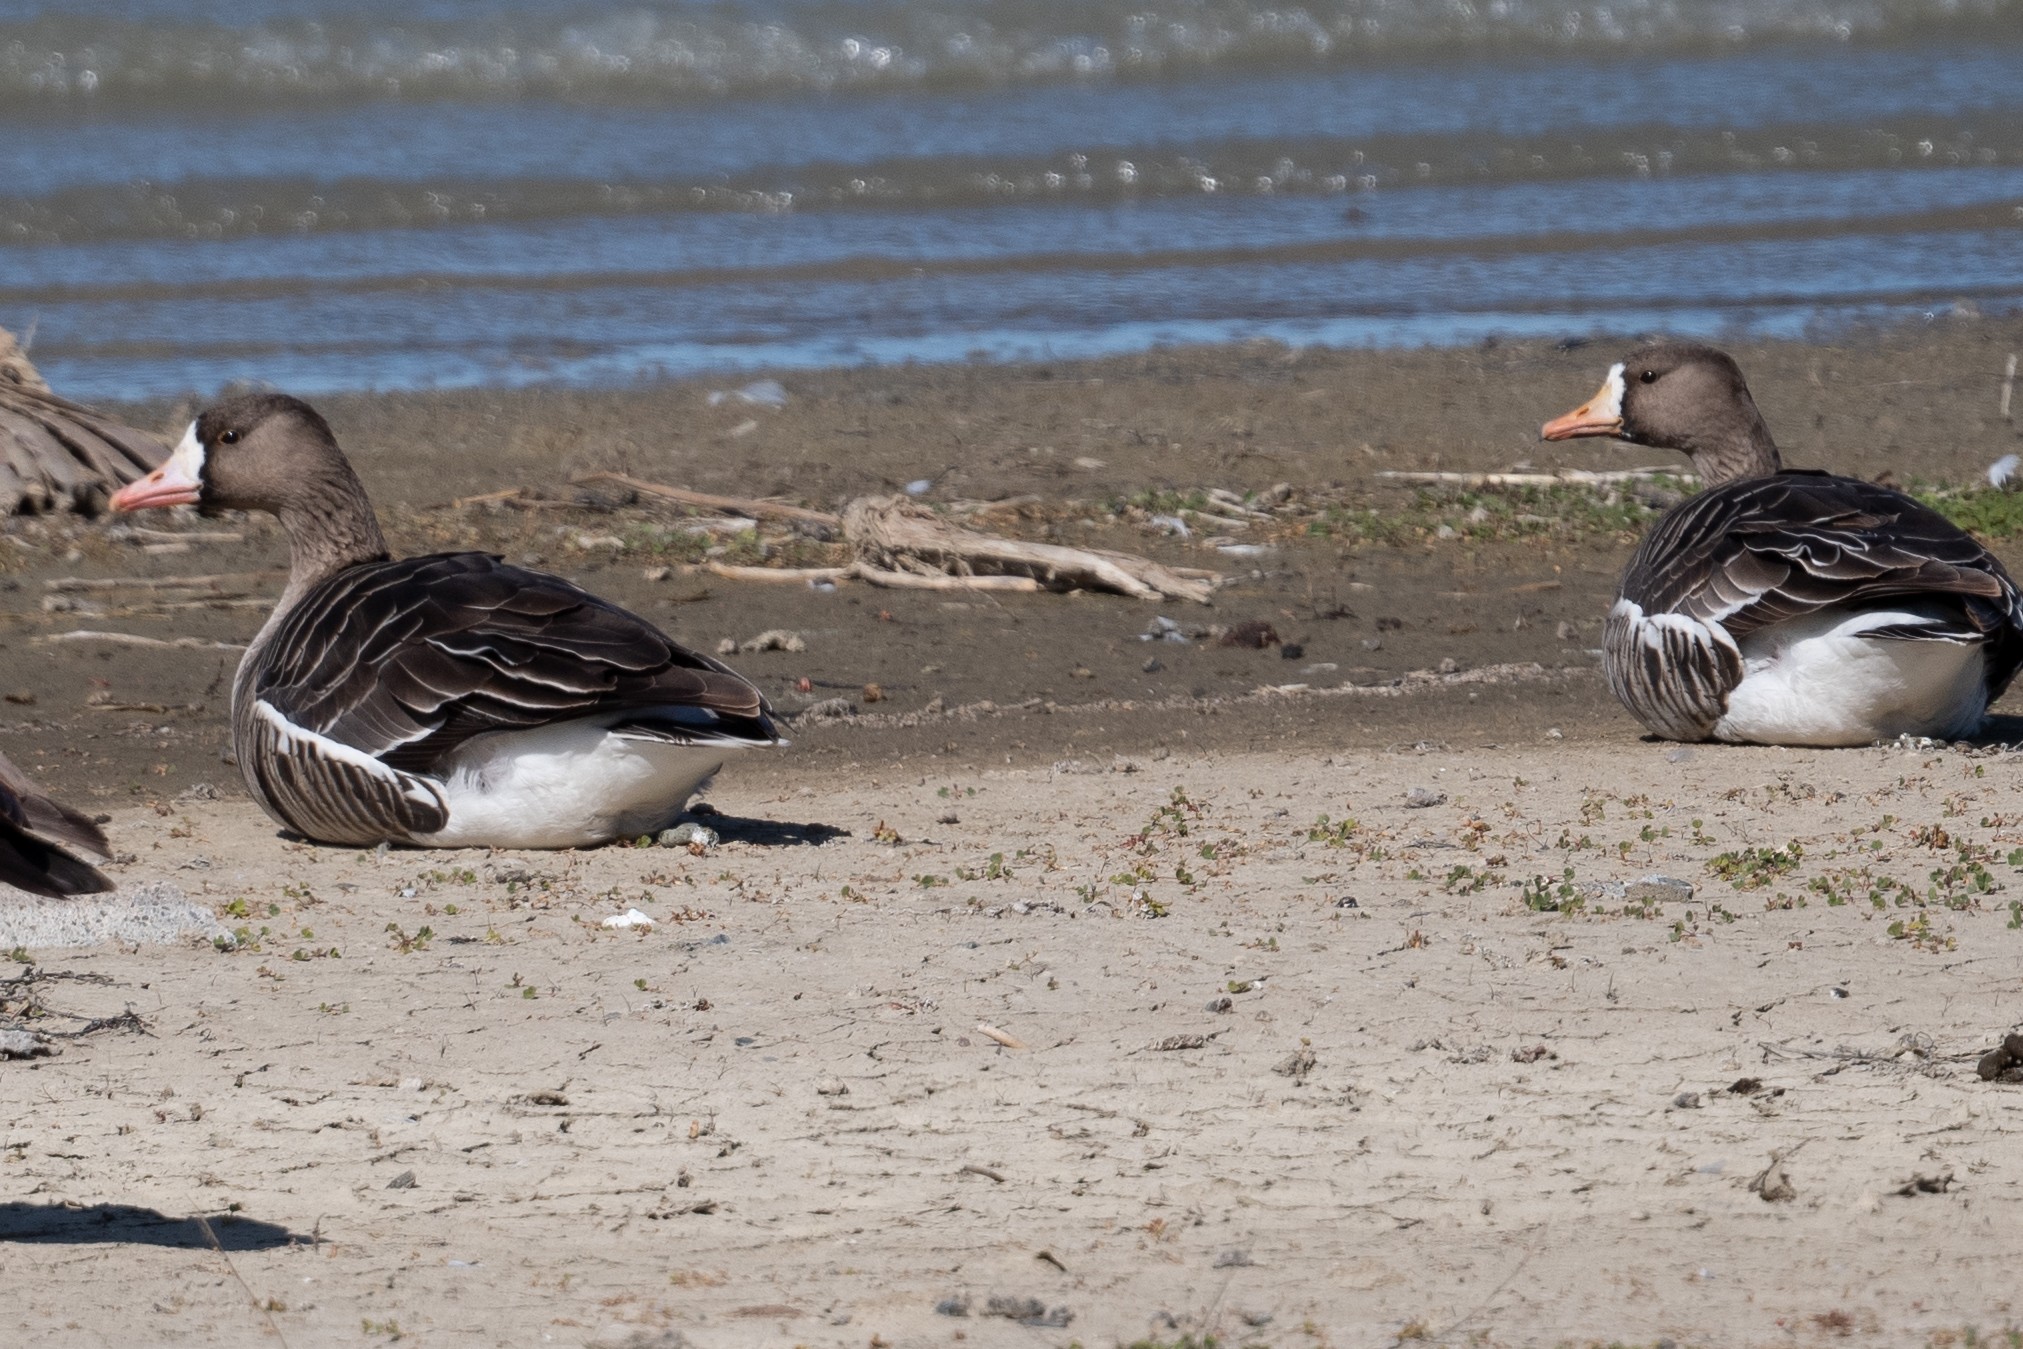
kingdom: Animalia
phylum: Chordata
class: Aves
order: Anseriformes
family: Anatidae
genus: Anser
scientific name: Anser albifrons
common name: Greater white-fronted goose
